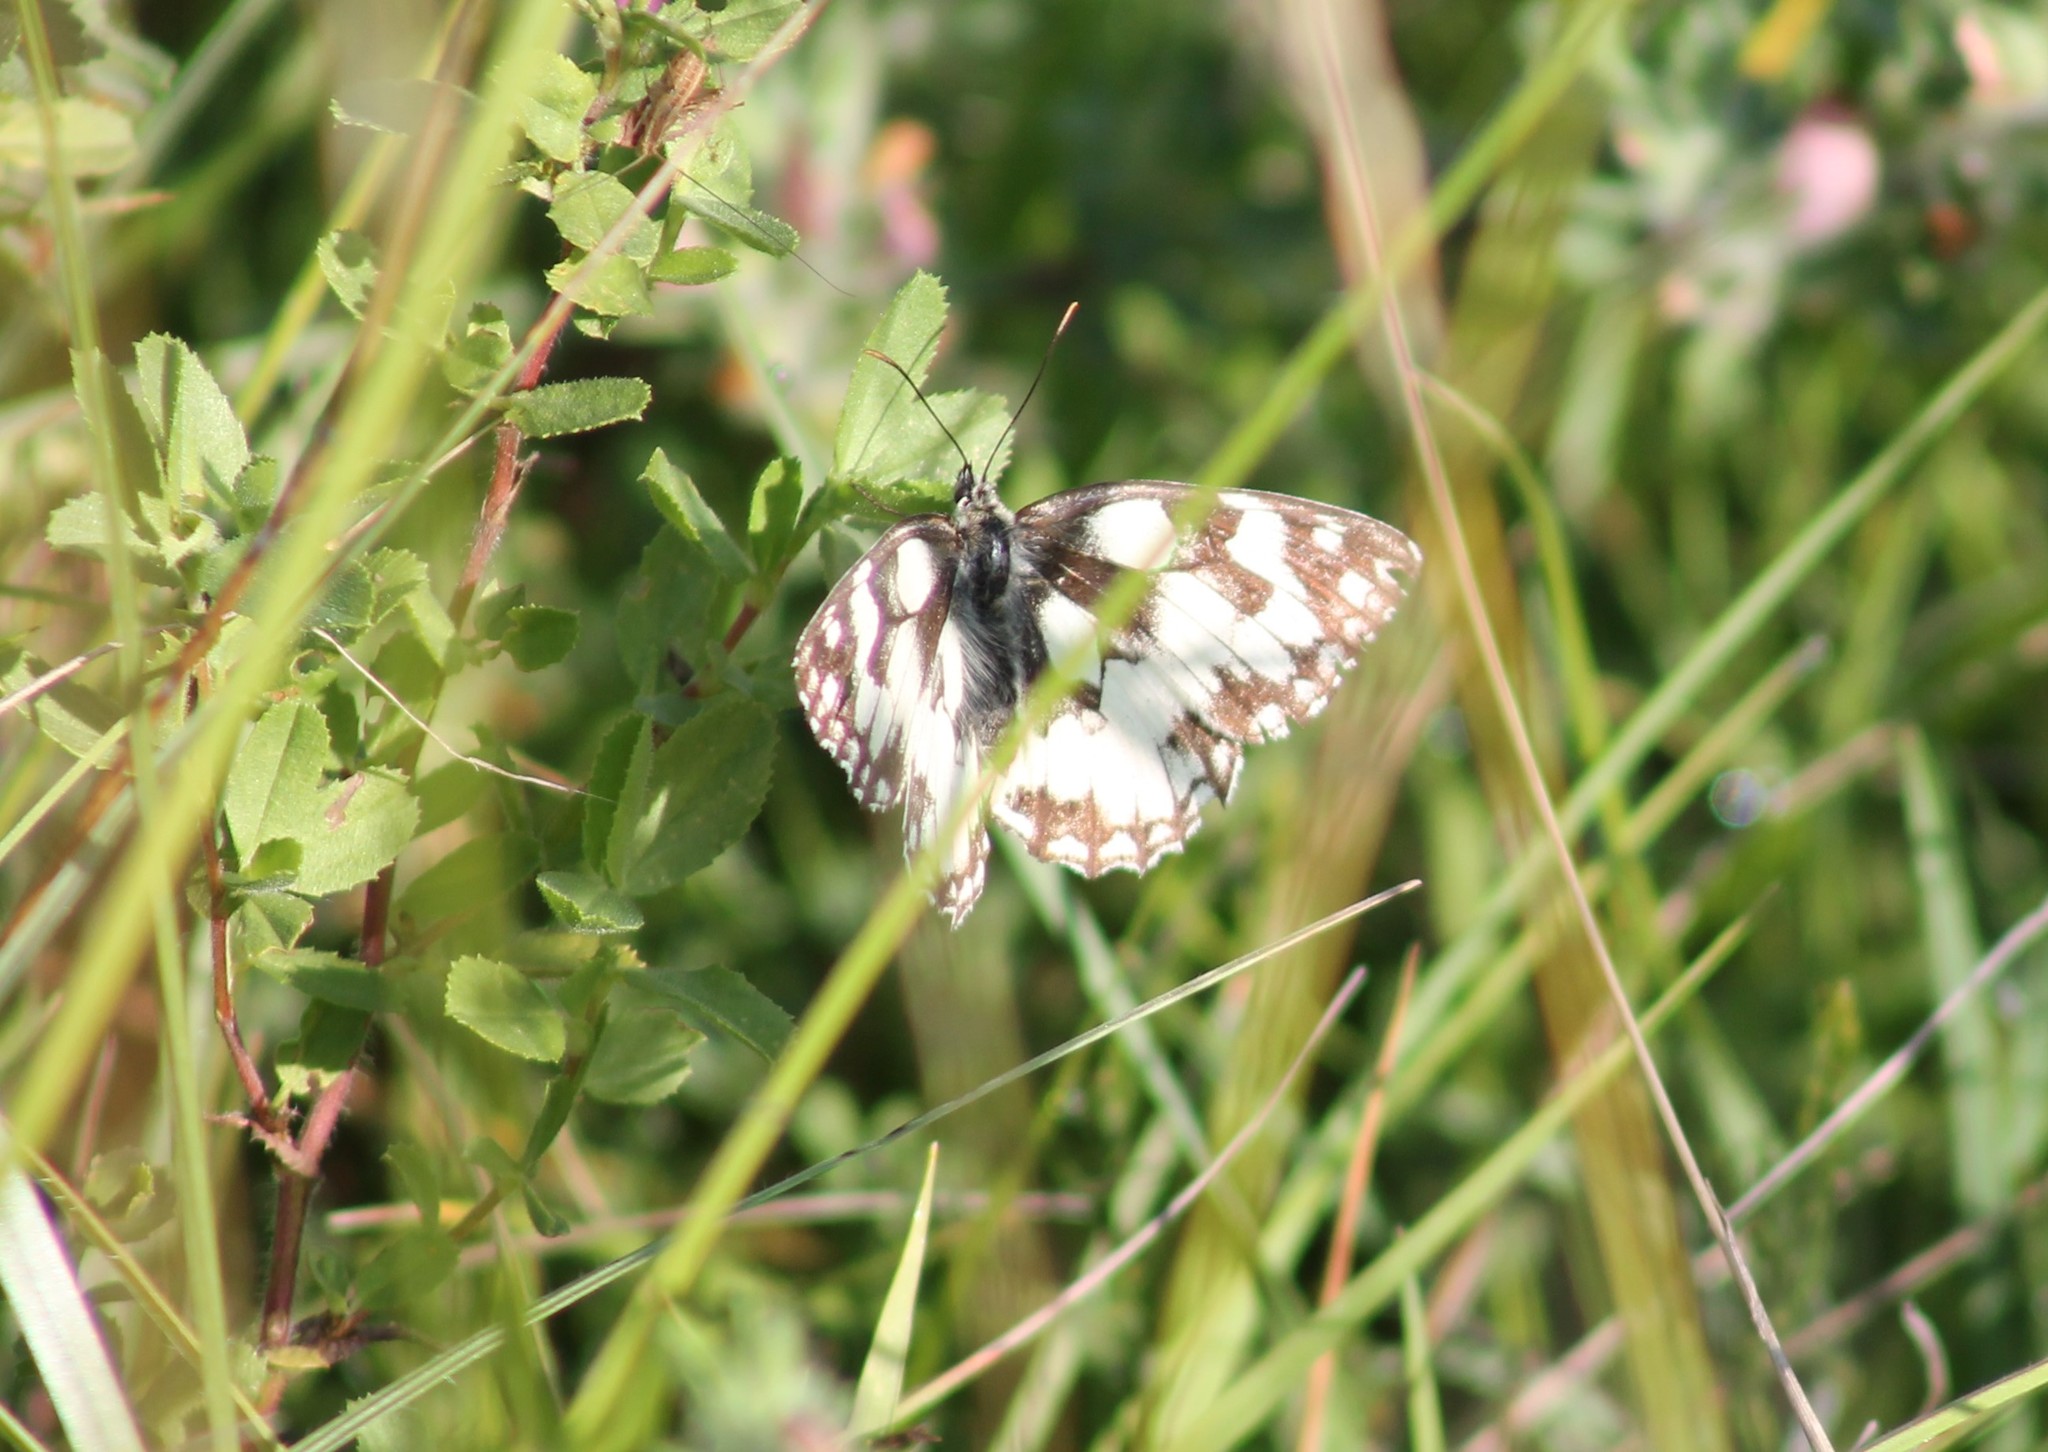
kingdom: Animalia
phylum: Arthropoda
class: Insecta
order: Lepidoptera
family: Nymphalidae
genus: Melanargia
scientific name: Melanargia galathea
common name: Marbled white
